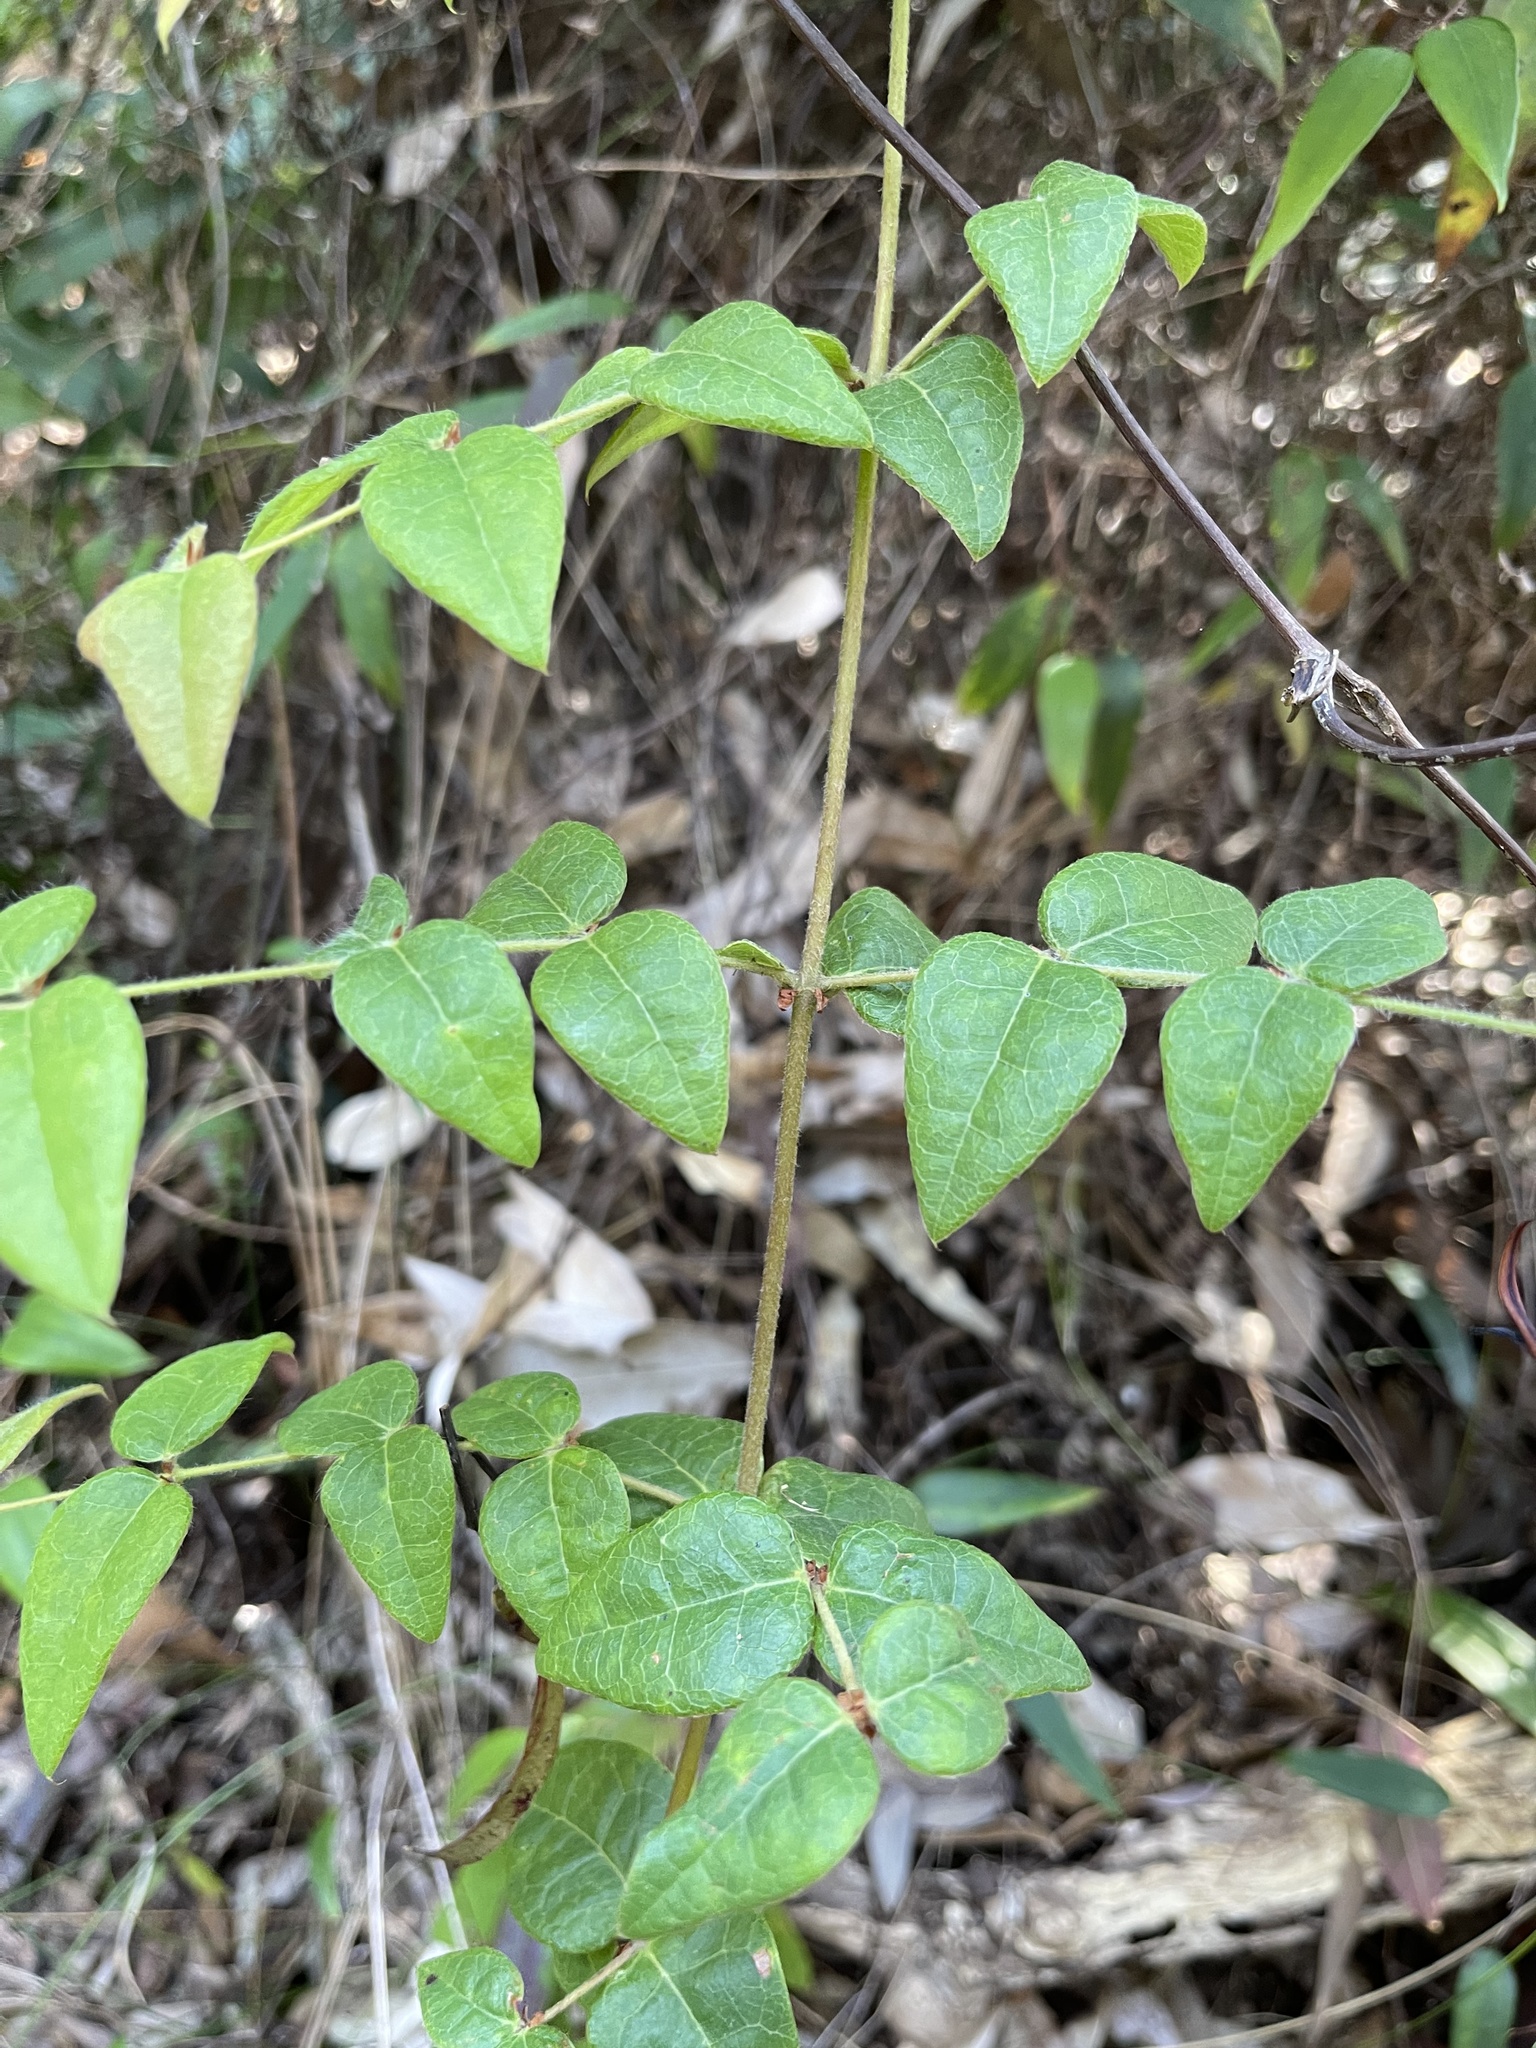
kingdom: Plantae
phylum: Tracheophyta
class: Magnoliopsida
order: Fabales
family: Fabaceae
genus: Platylobium
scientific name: Platylobium formosum
